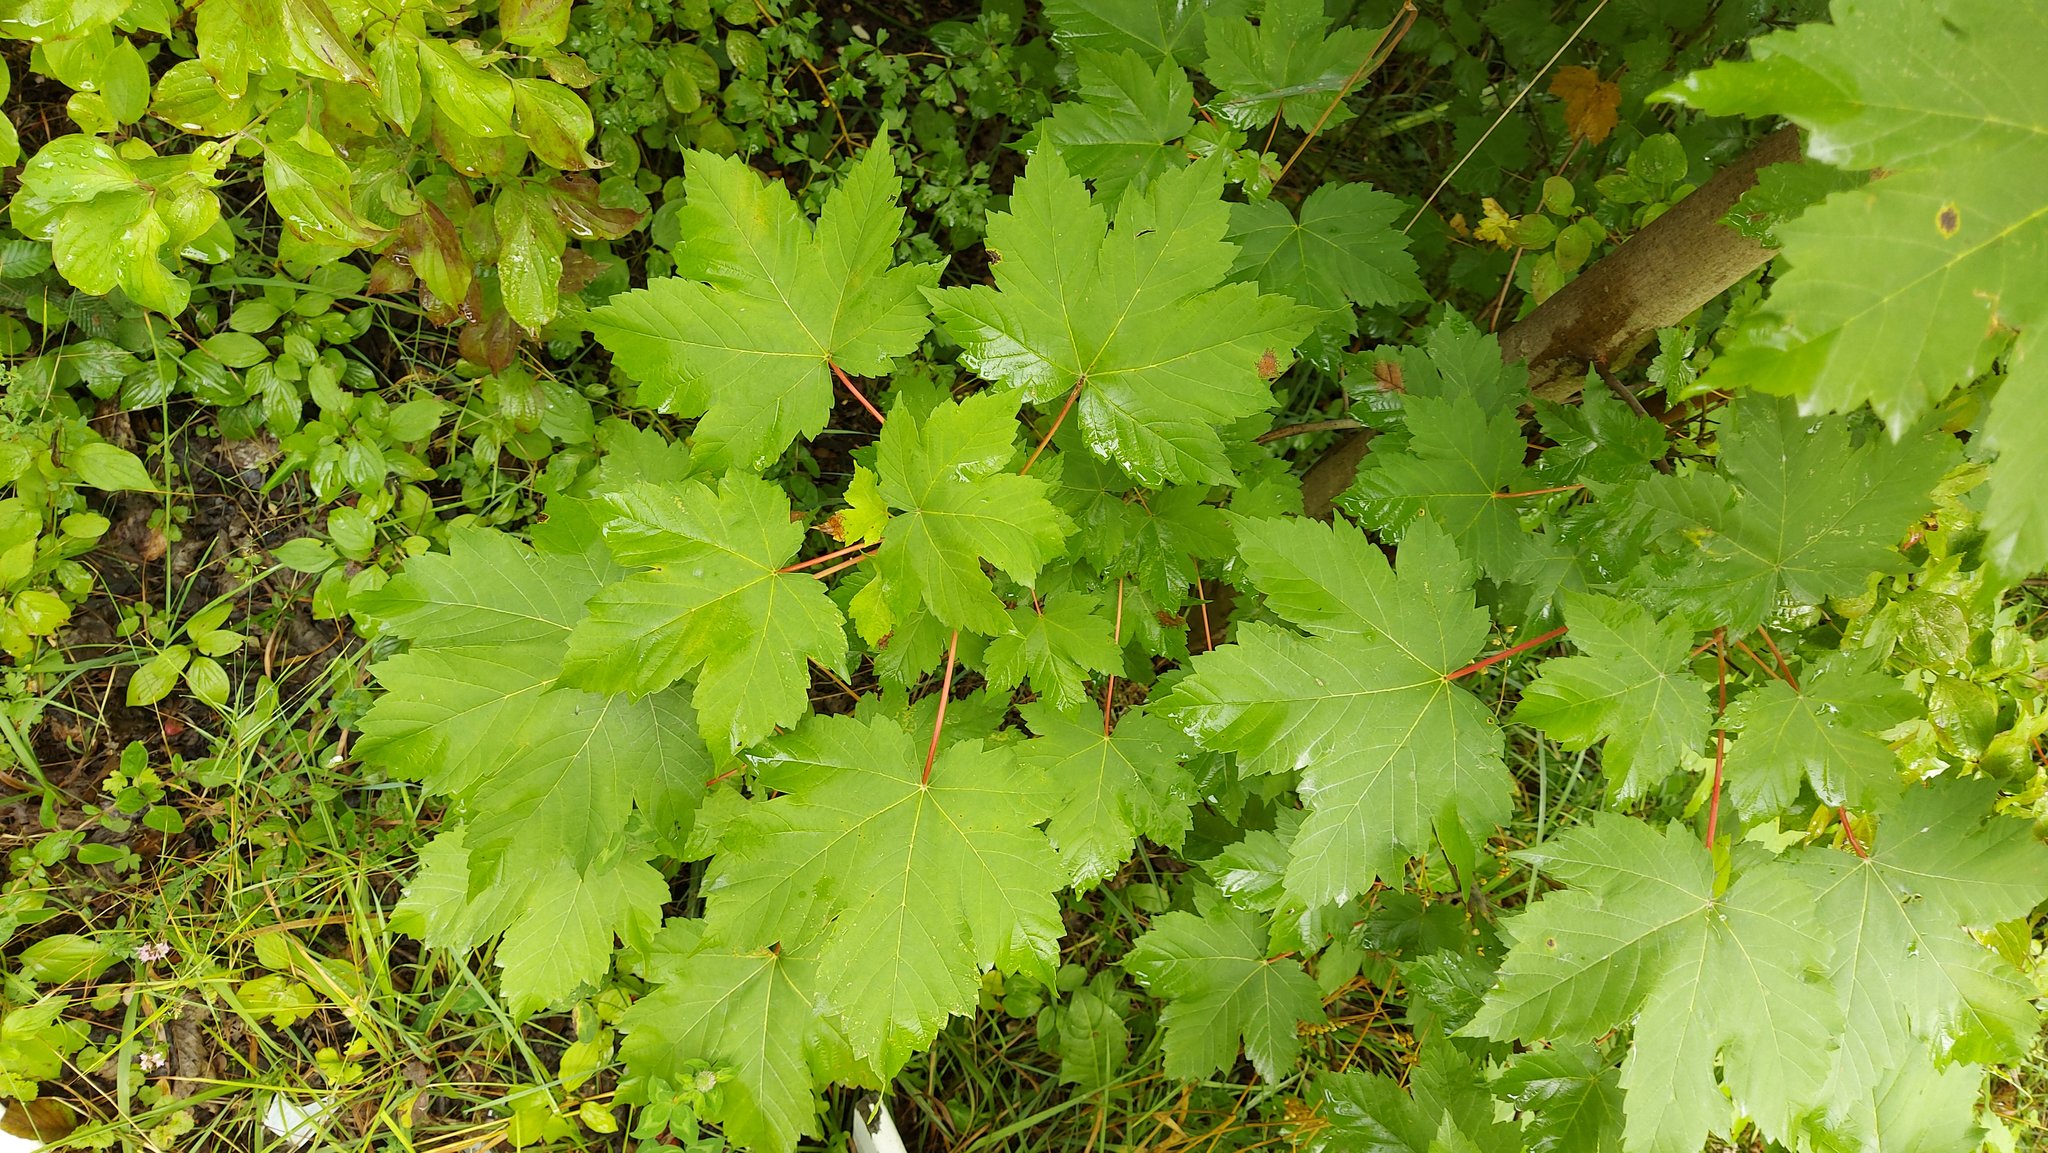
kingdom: Plantae
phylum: Tracheophyta
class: Magnoliopsida
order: Sapindales
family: Sapindaceae
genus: Acer
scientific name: Acer pseudoplatanus
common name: Sycamore
